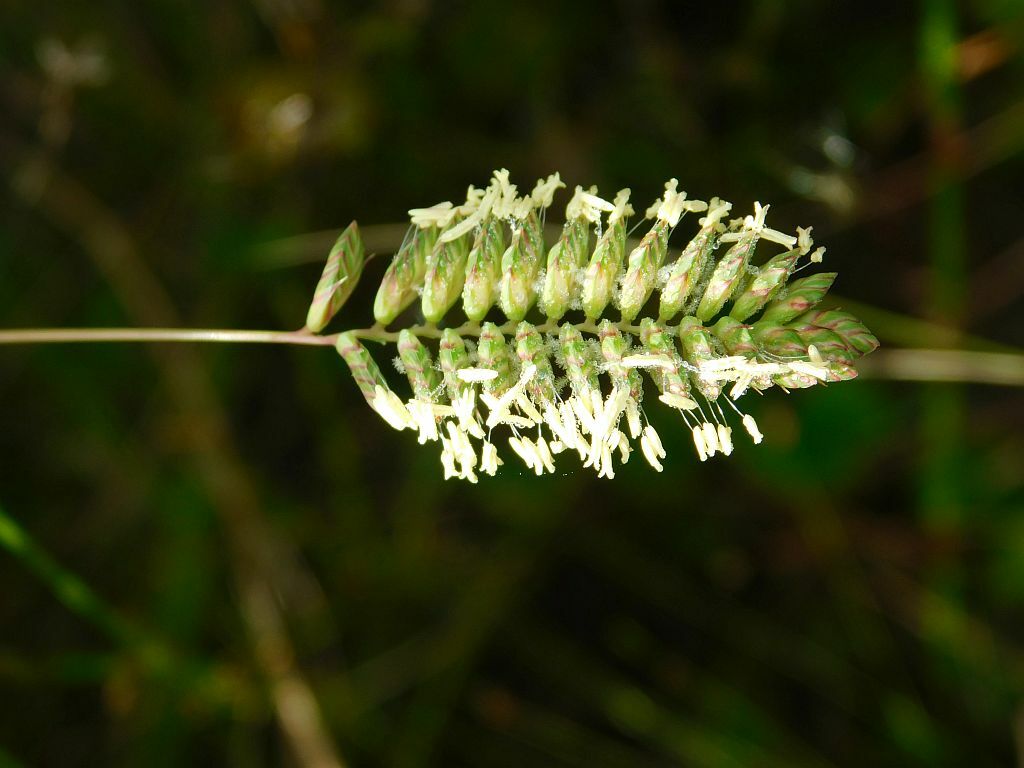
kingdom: Plantae
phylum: Tracheophyta
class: Liliopsida
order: Poales
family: Poaceae
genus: Tribolium
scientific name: Tribolium uniolae
